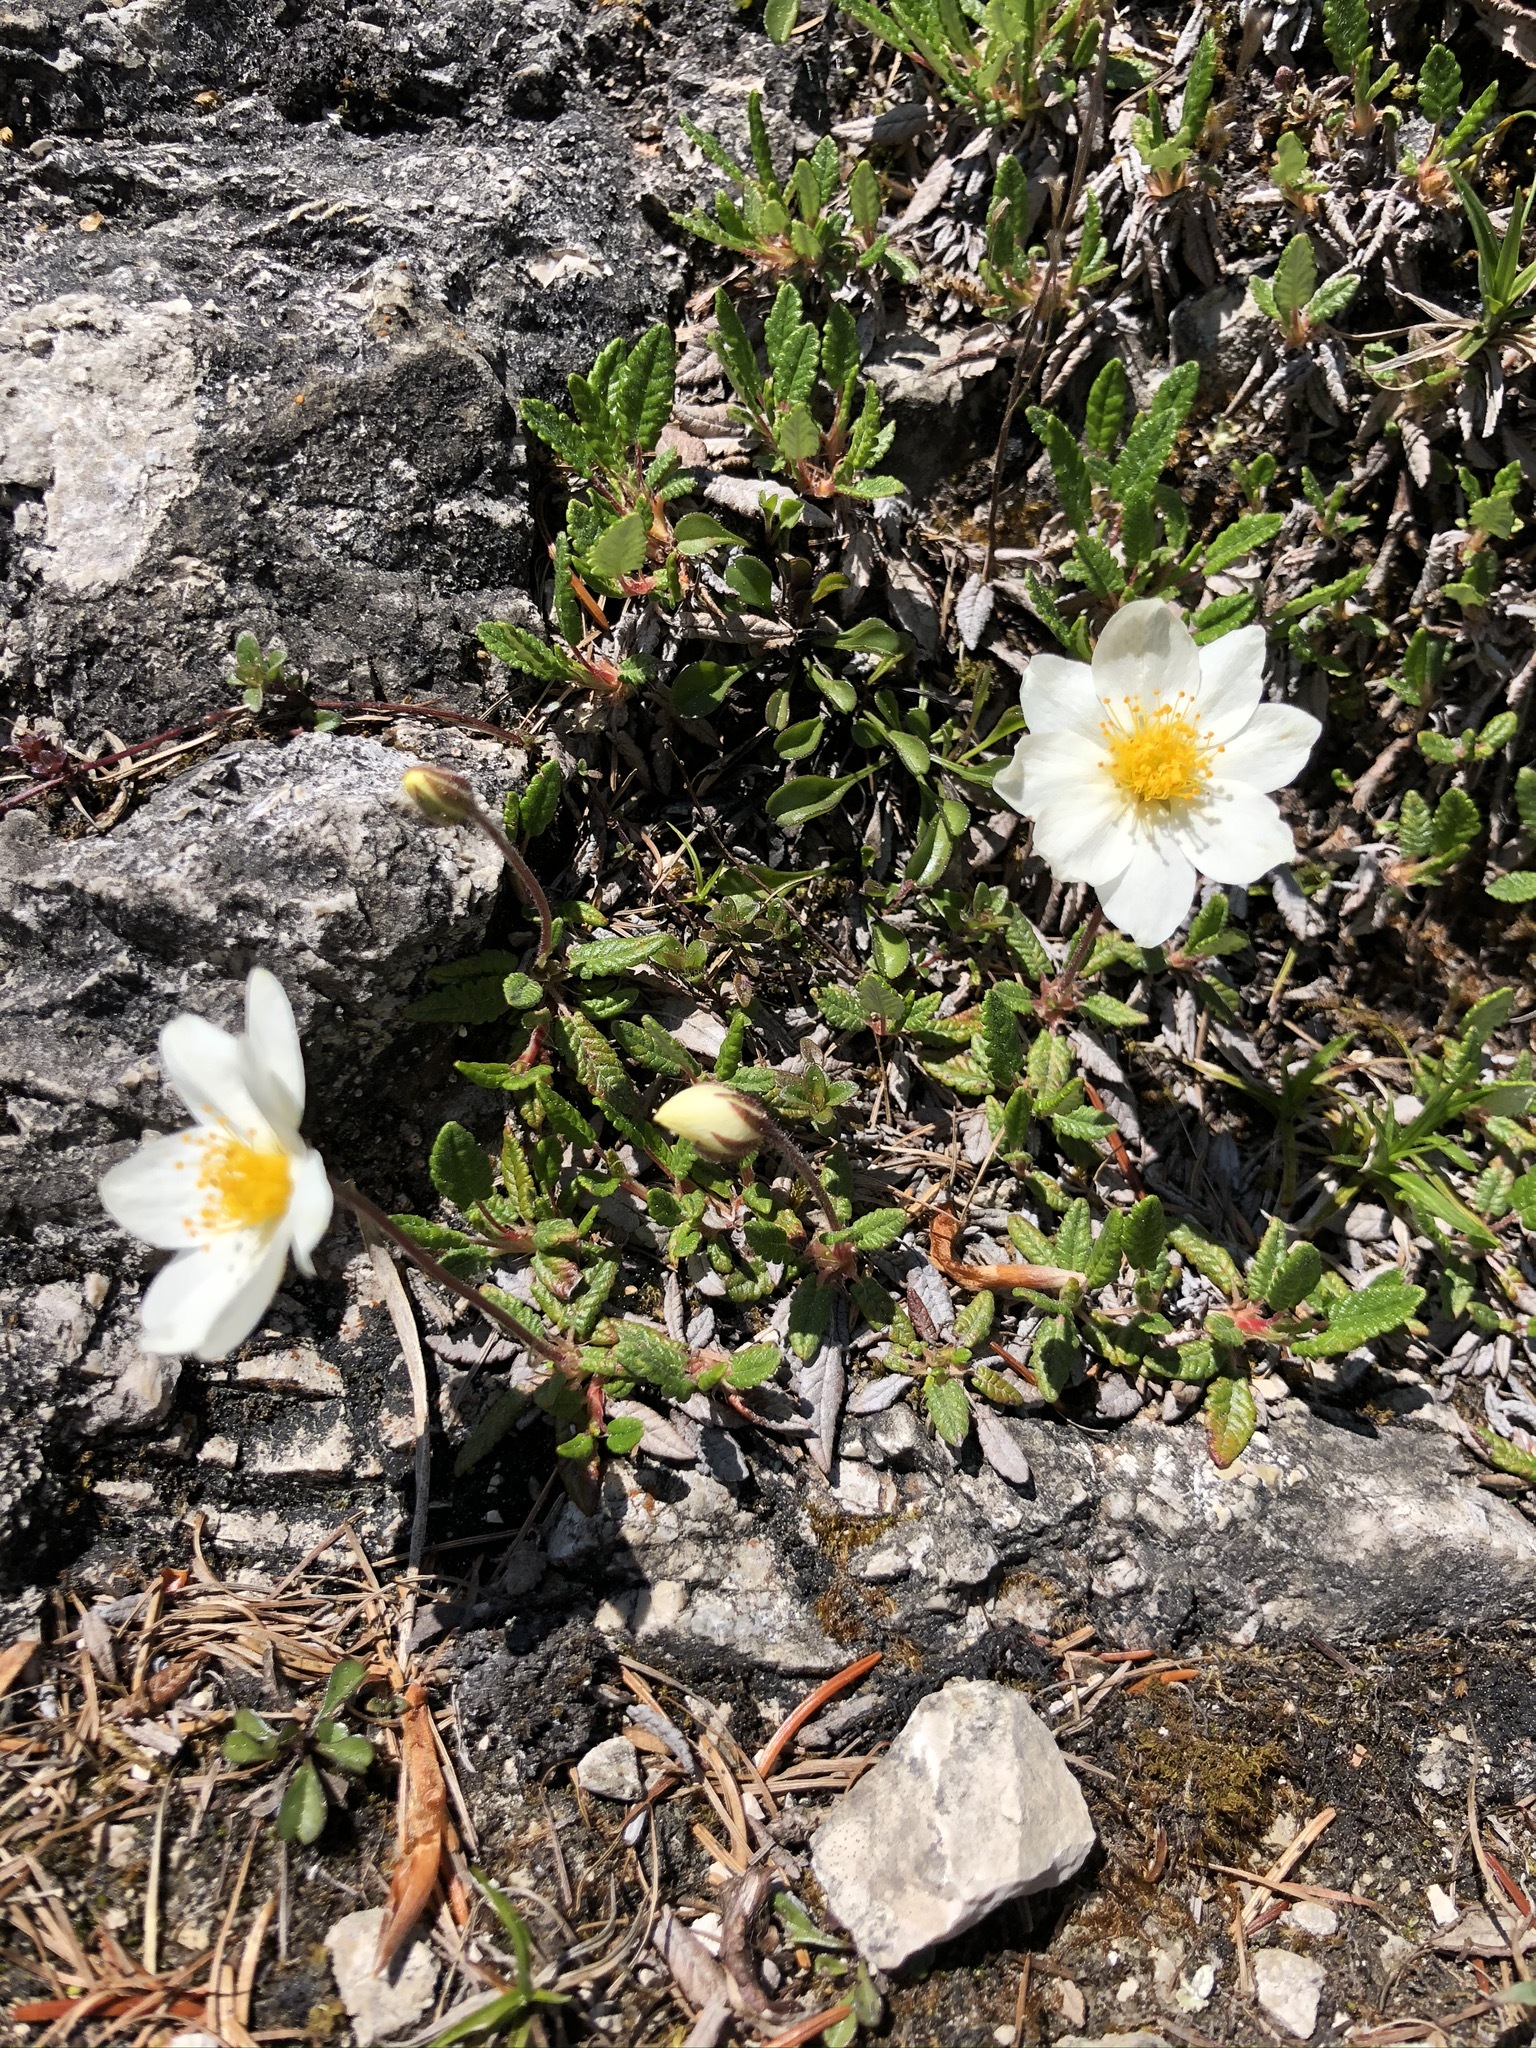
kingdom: Plantae
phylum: Tracheophyta
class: Magnoliopsida
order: Rosales
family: Rosaceae
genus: Dryas
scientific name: Dryas octopetala
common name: Eight-petal mountain-avens
